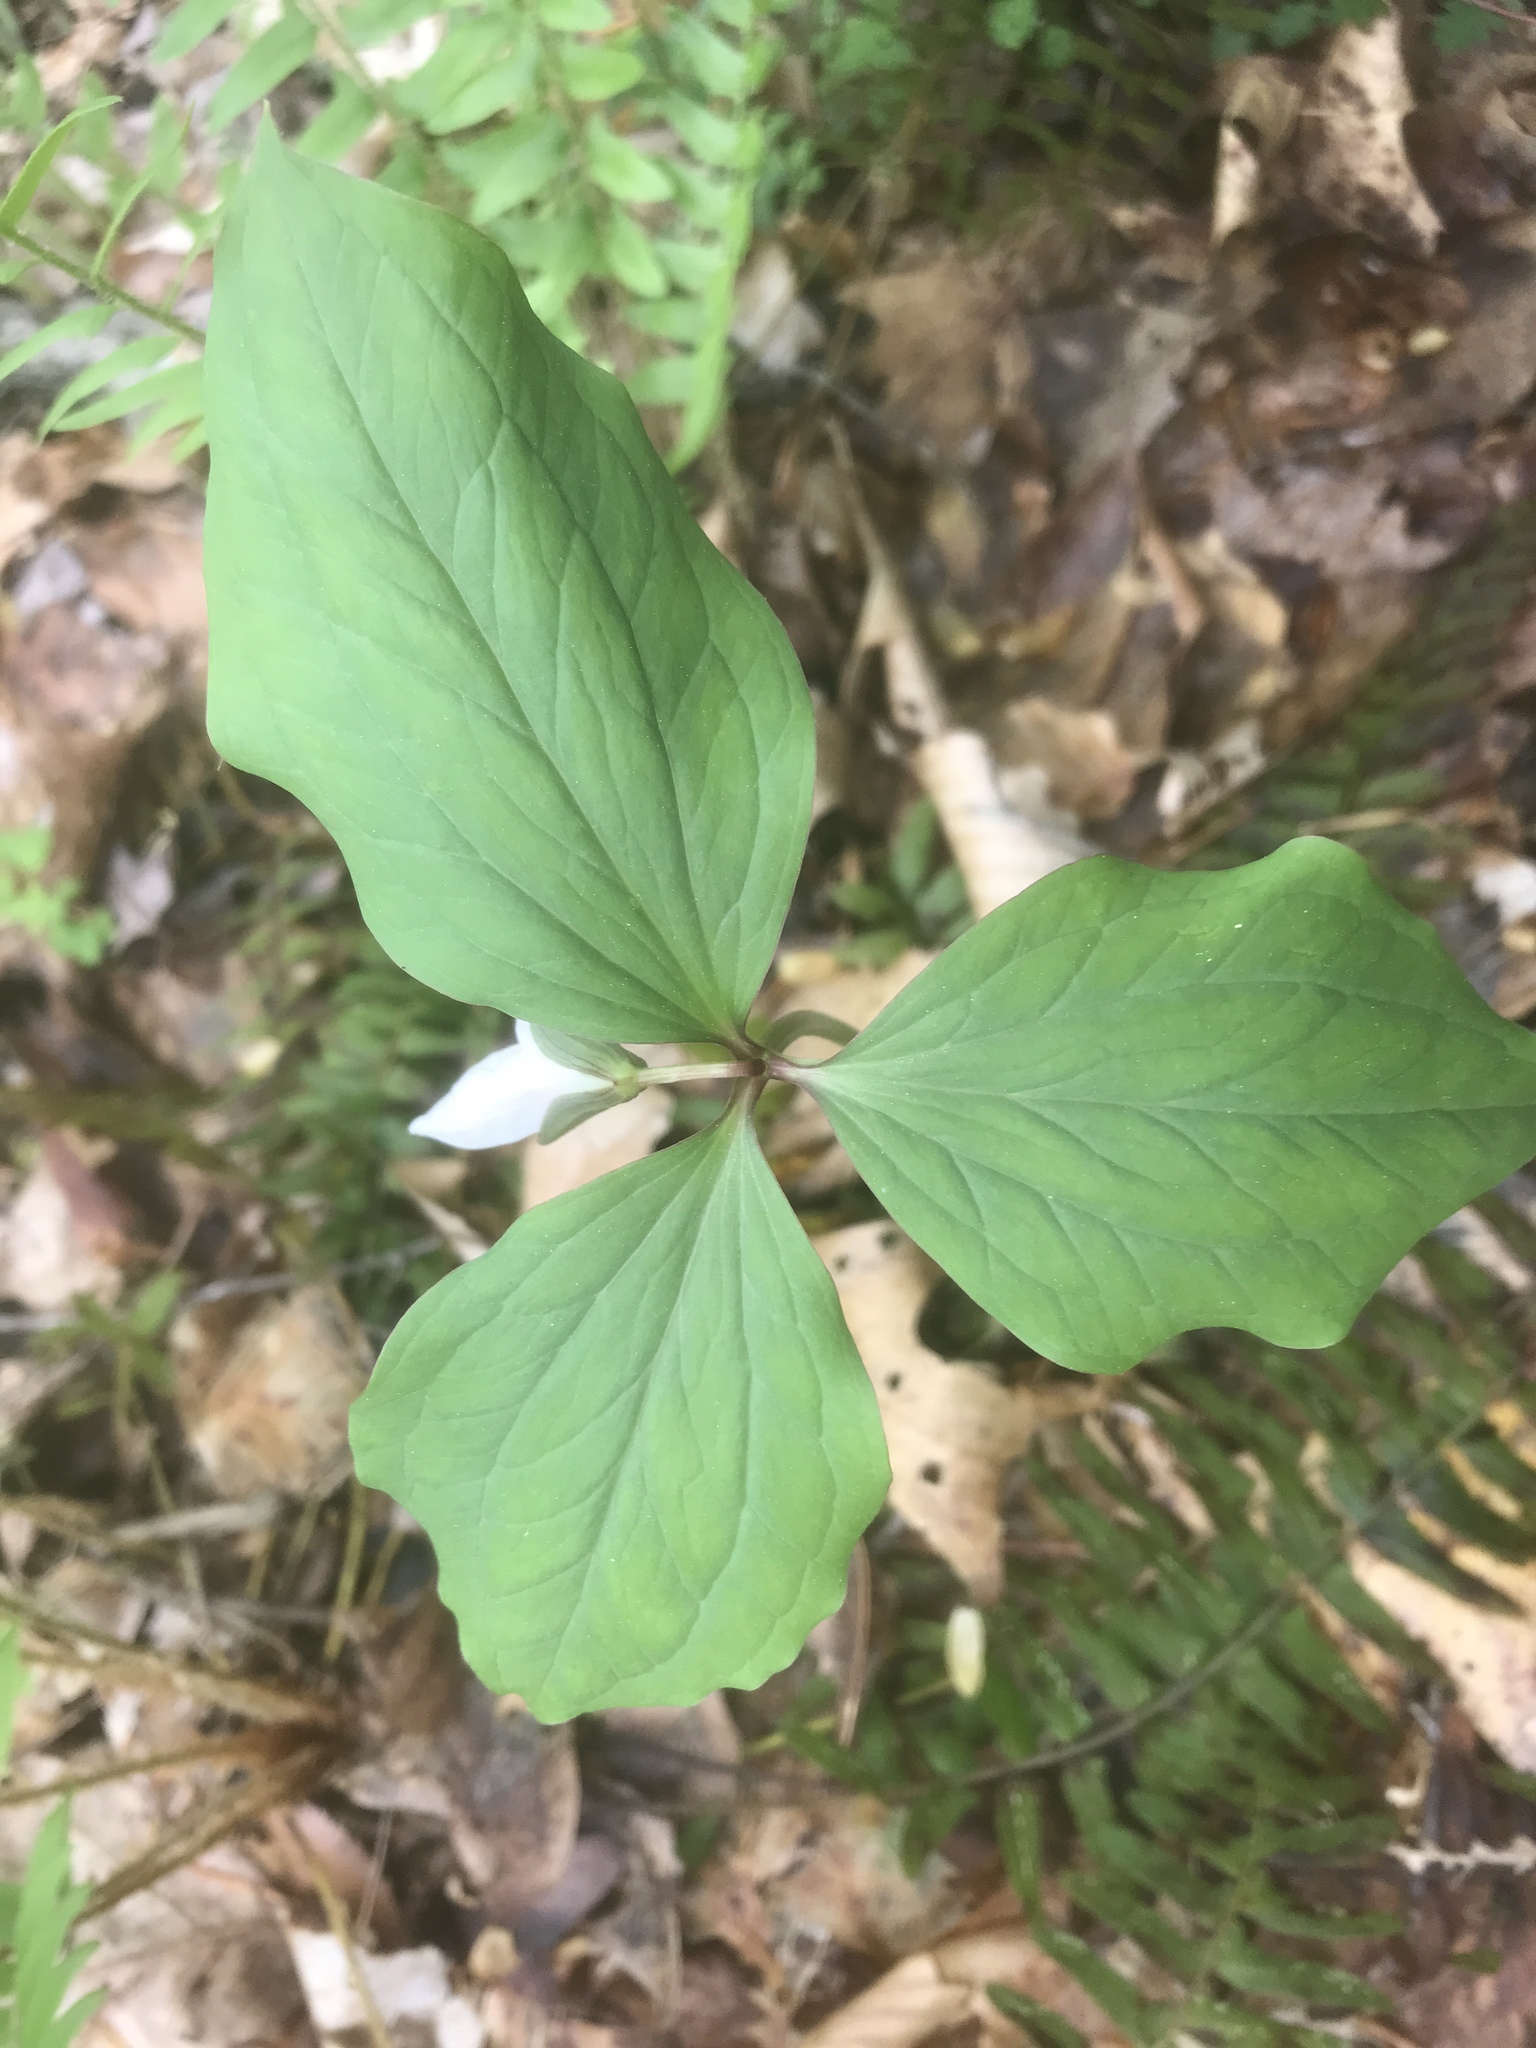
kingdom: Plantae
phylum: Tracheophyta
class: Liliopsida
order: Liliales
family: Melanthiaceae
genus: Trillium
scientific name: Trillium catesbaei
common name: Bashful trillium
